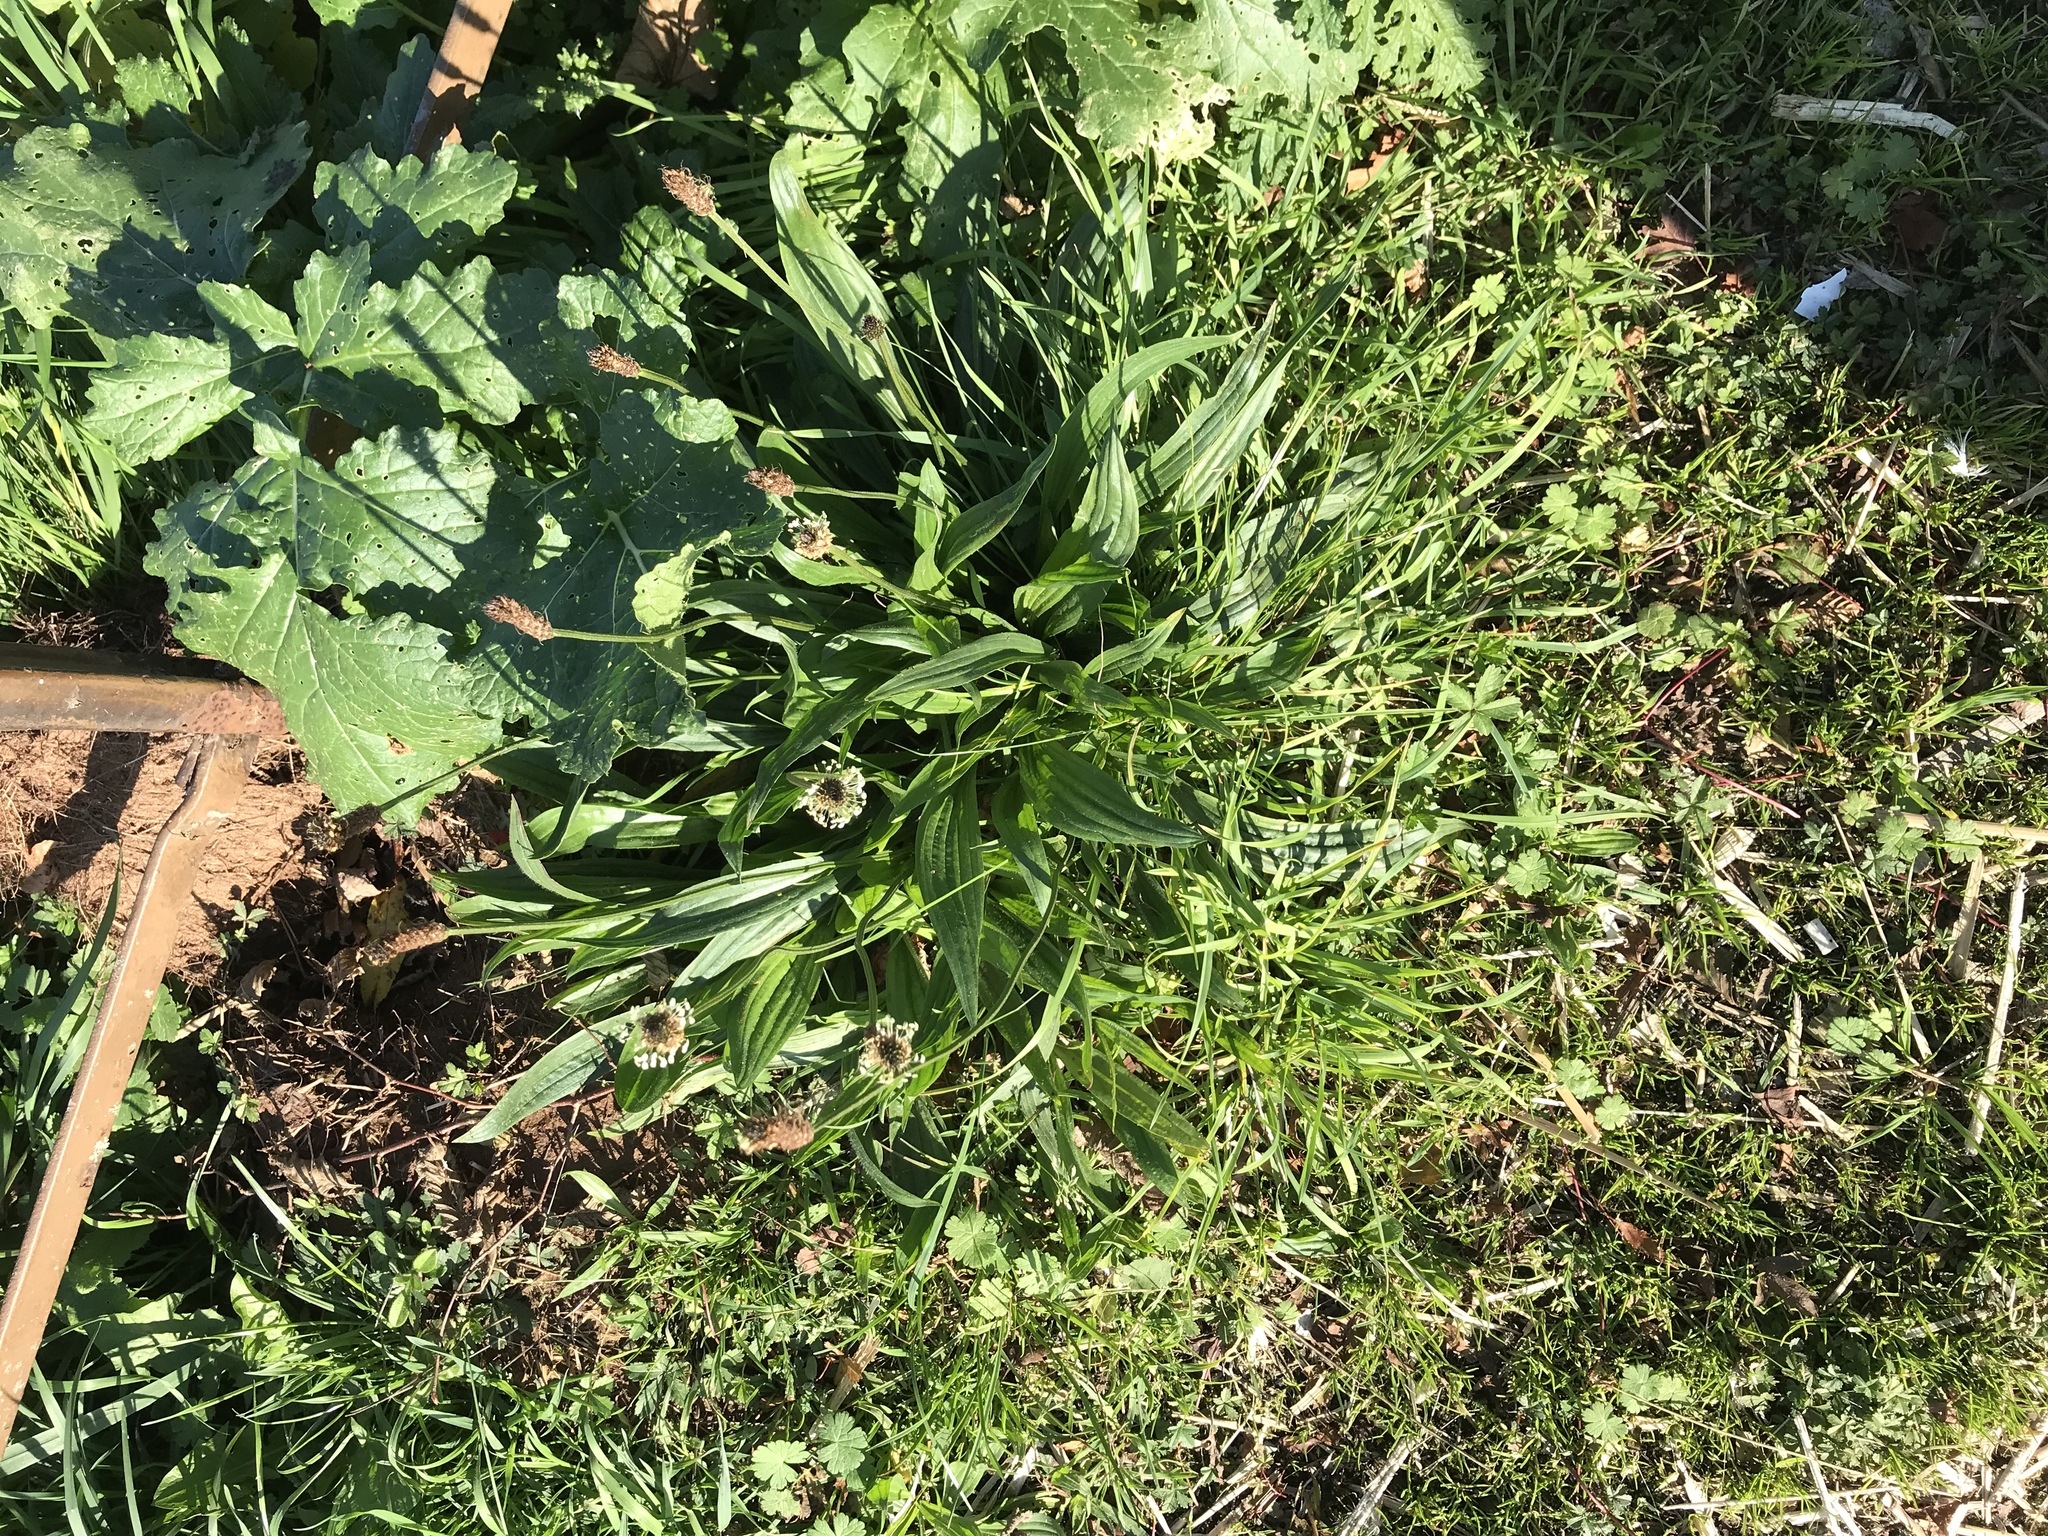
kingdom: Plantae
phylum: Tracheophyta
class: Magnoliopsida
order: Lamiales
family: Plantaginaceae
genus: Plantago
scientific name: Plantago lanceolata
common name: Ribwort plantain
